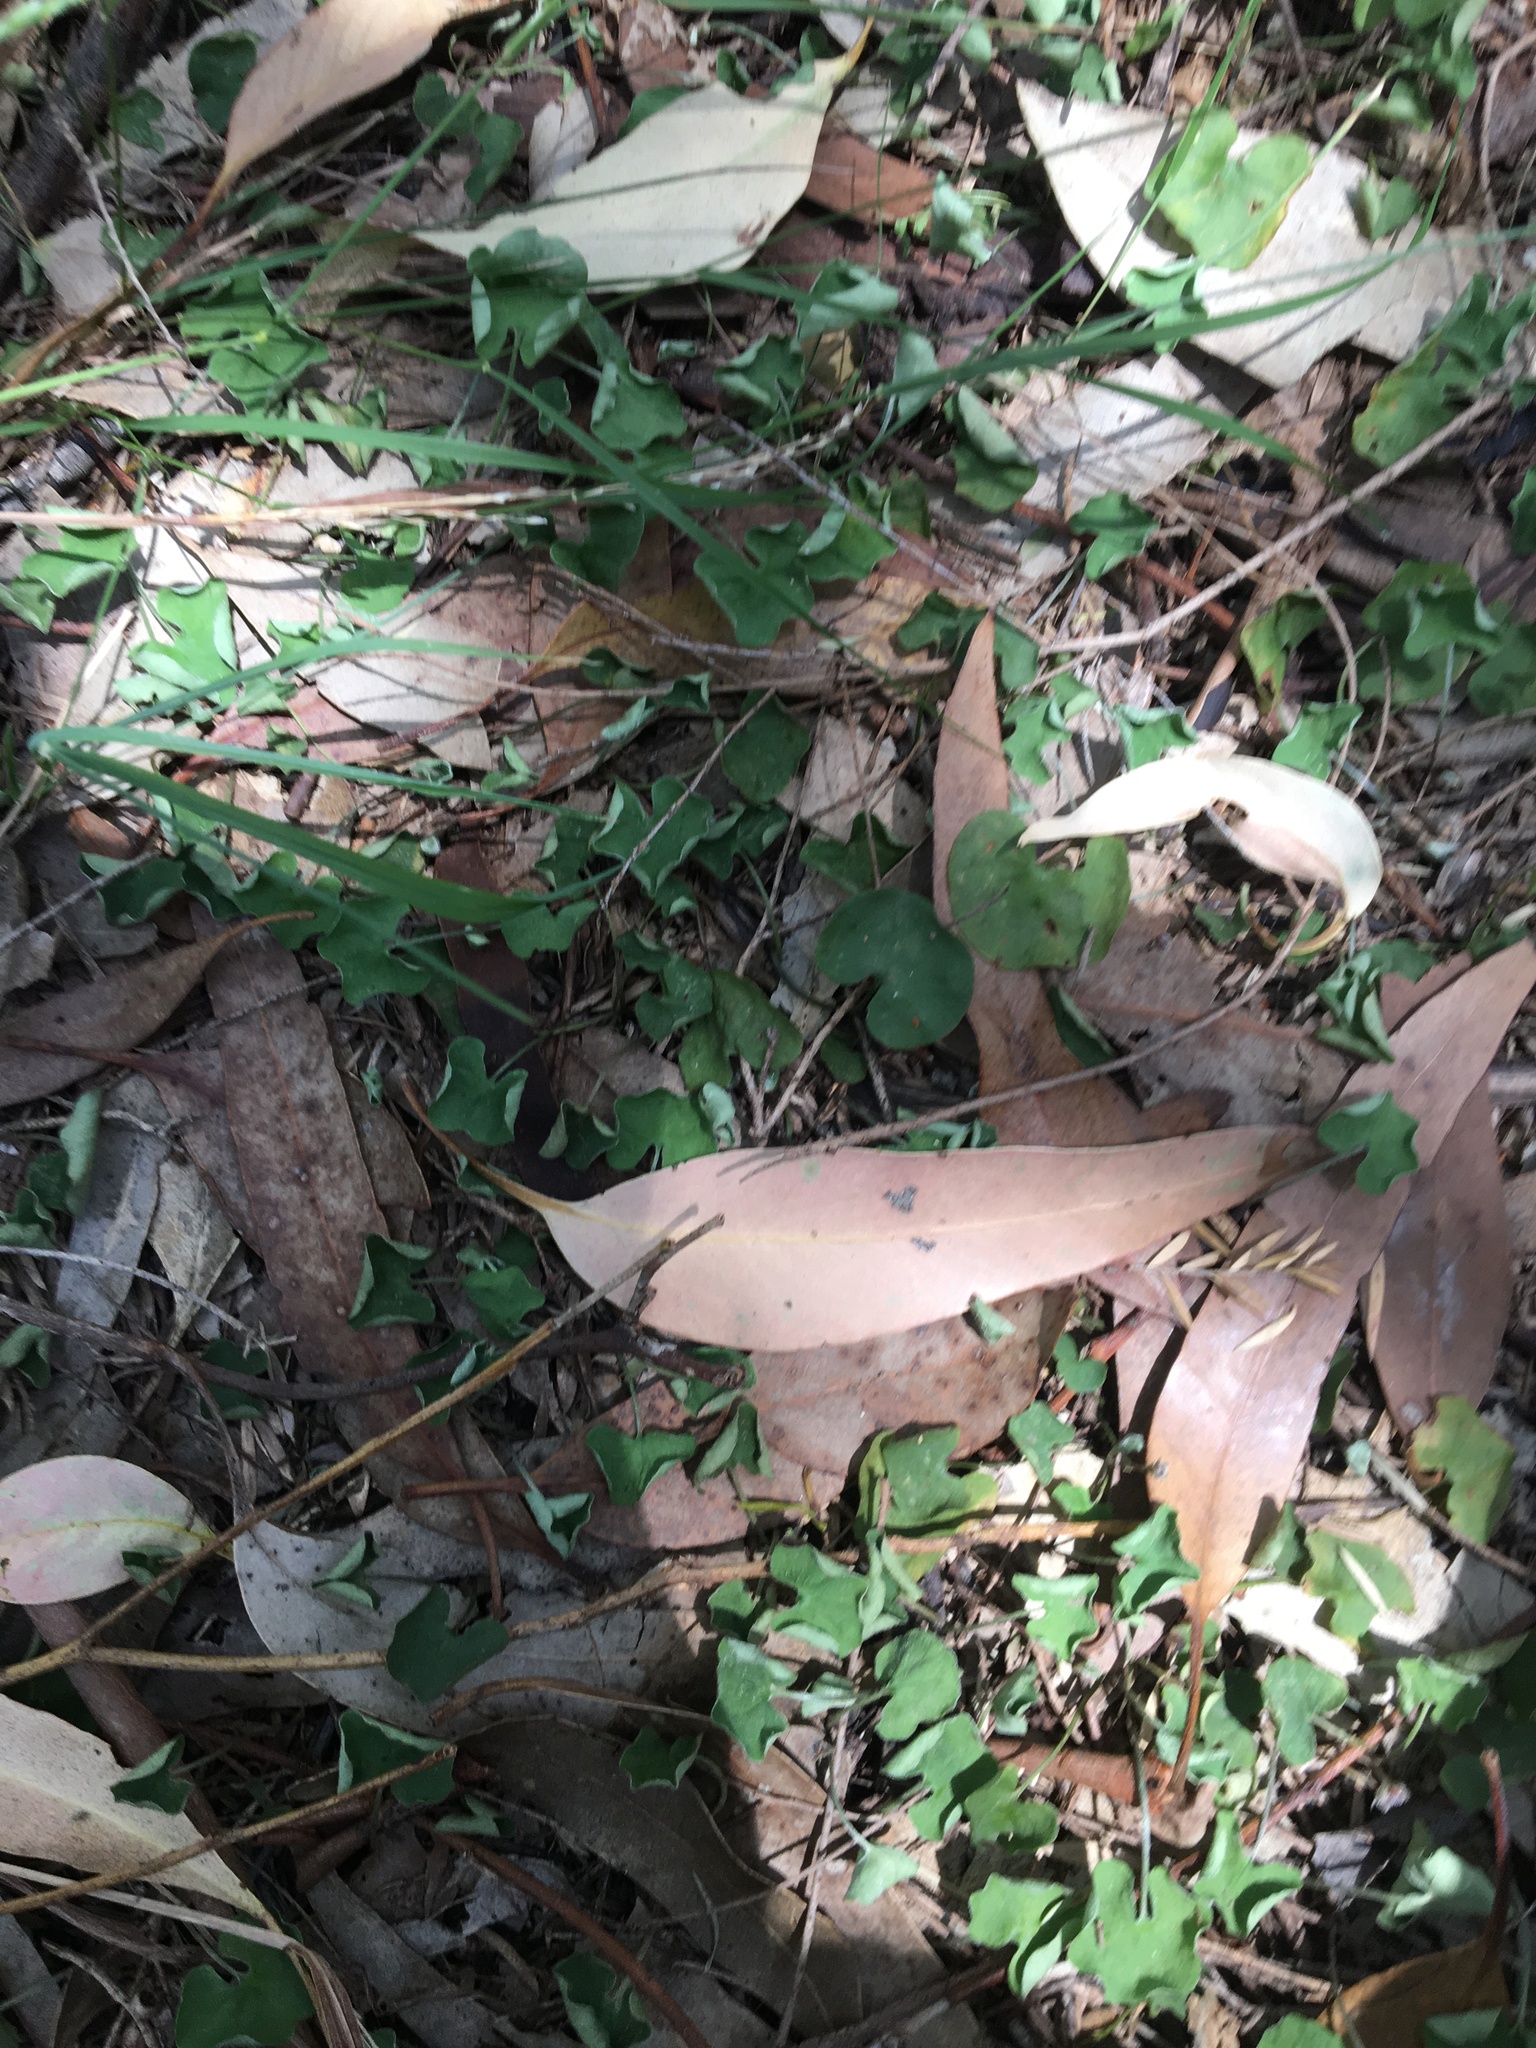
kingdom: Plantae
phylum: Tracheophyta
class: Magnoliopsida
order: Solanales
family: Convolvulaceae
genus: Dichondra
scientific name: Dichondra repens
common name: Kidneyweed
